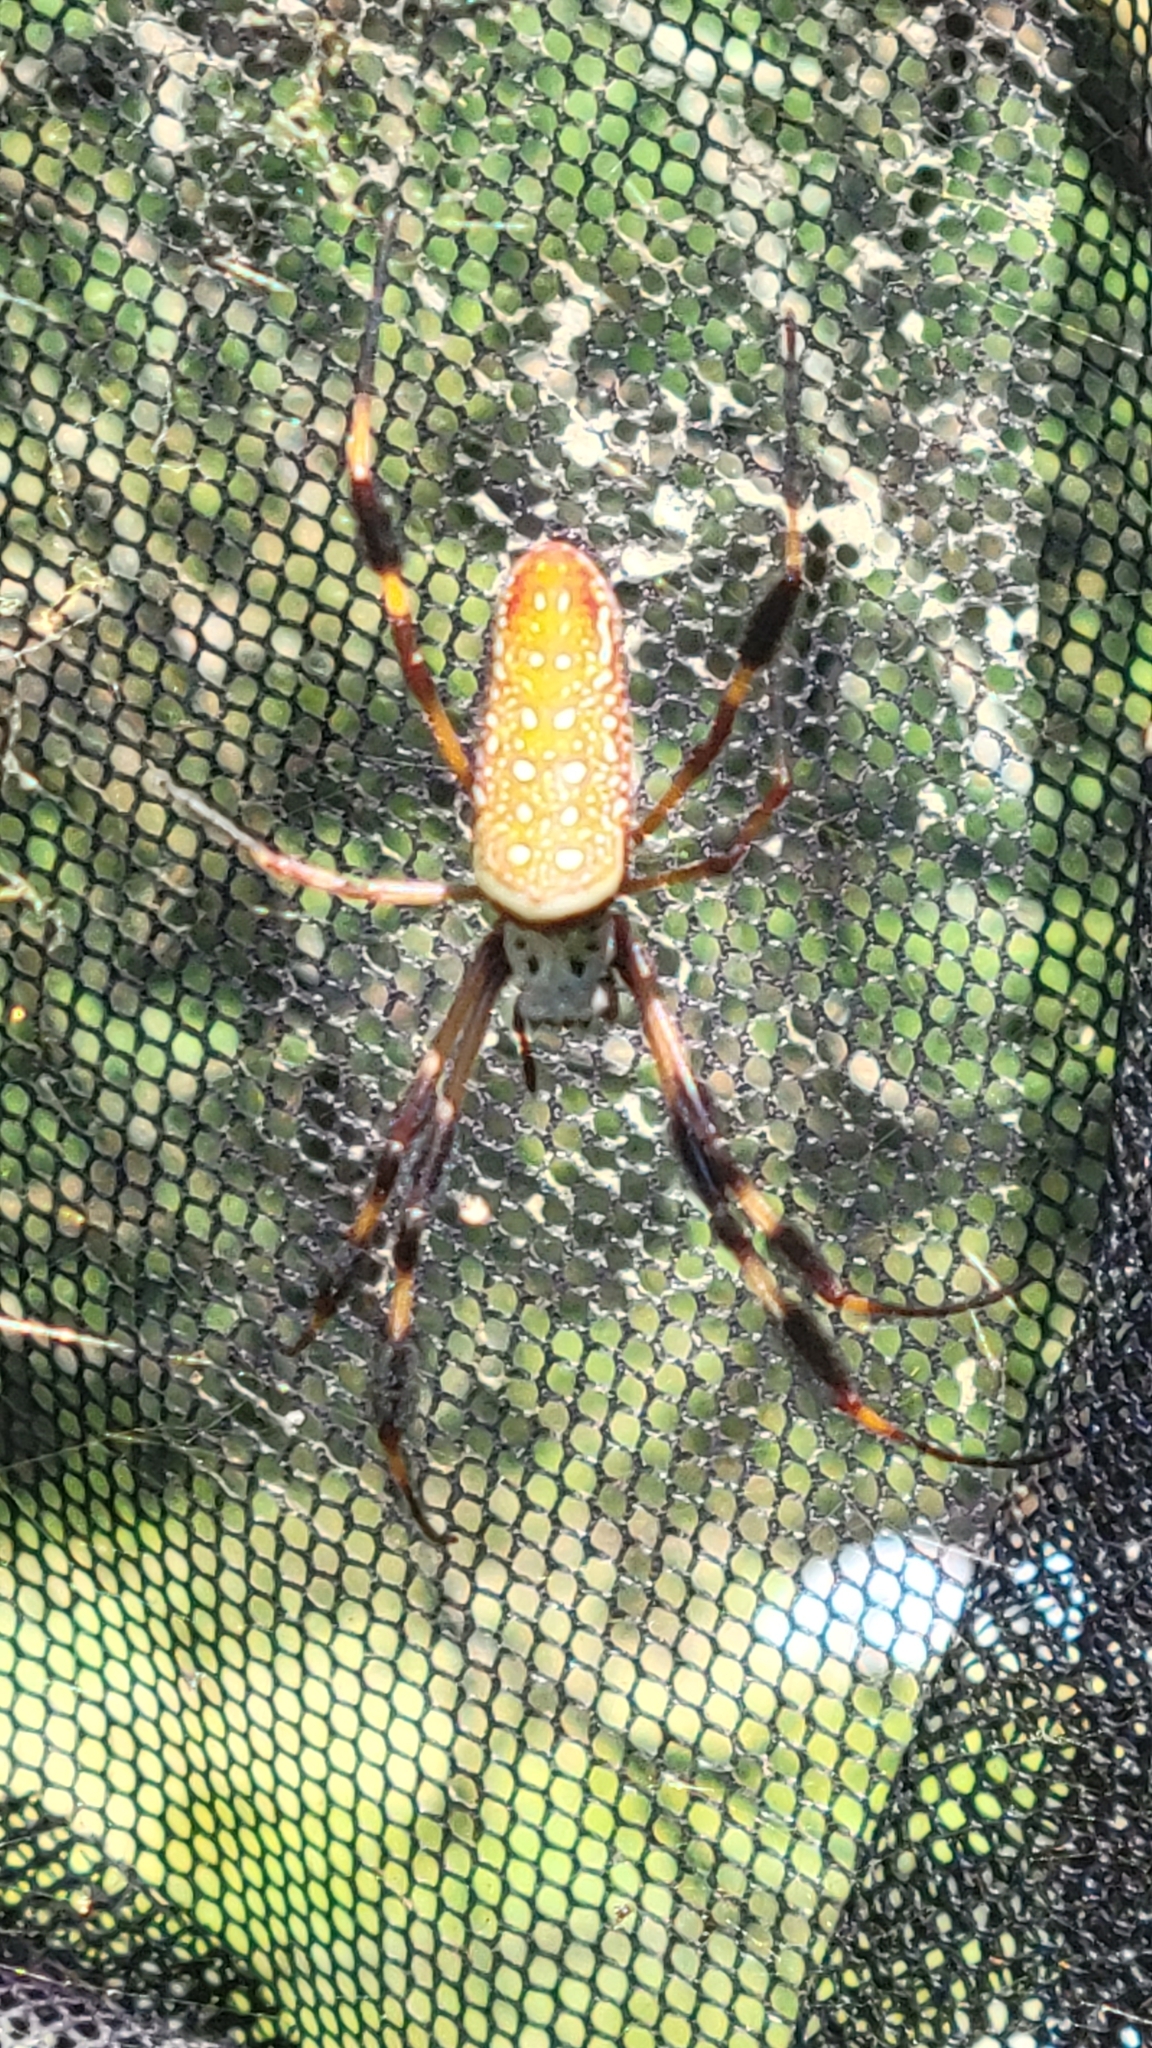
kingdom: Animalia
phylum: Arthropoda
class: Arachnida
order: Araneae
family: Araneidae
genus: Trichonephila
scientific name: Trichonephila clavipes
